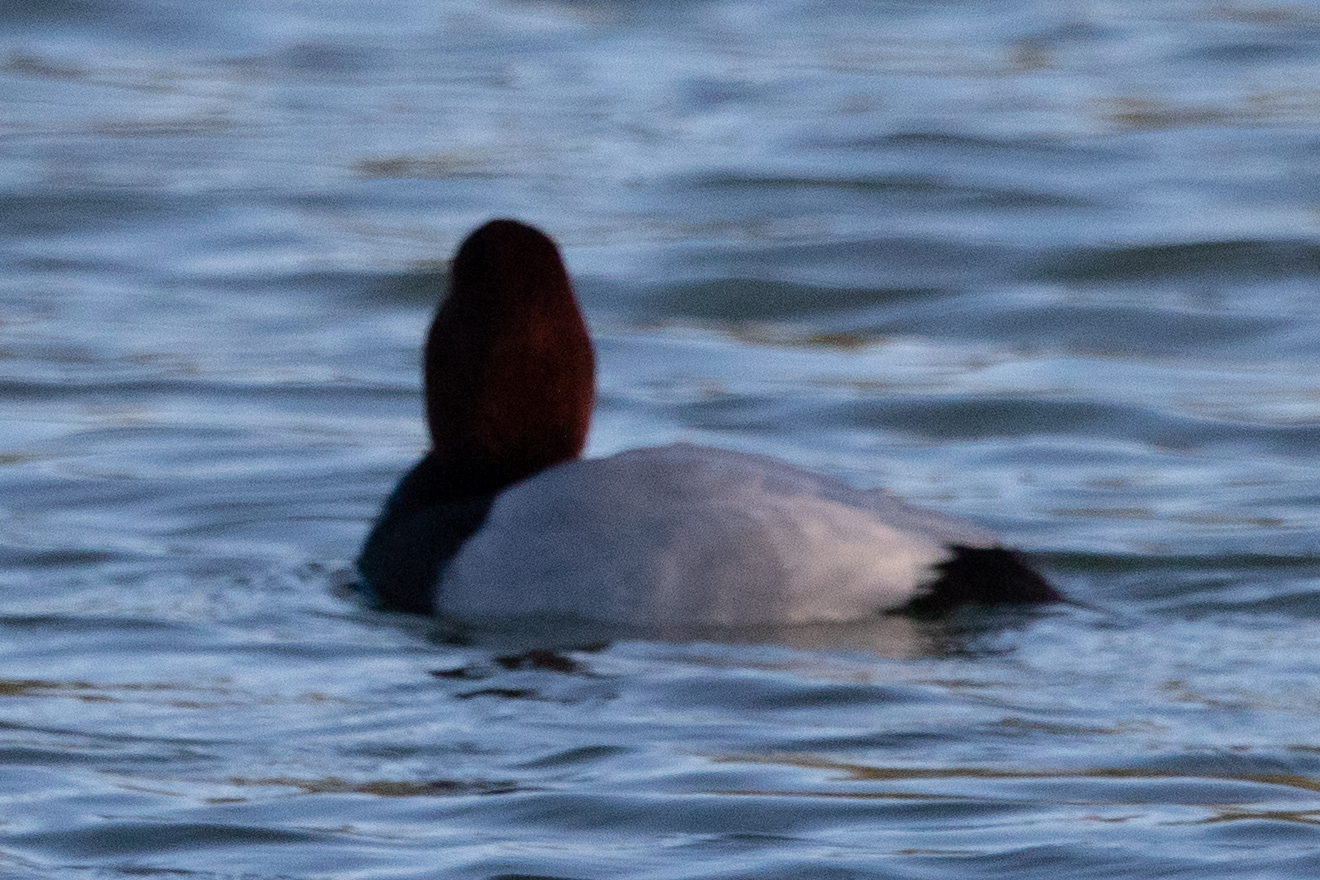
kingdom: Animalia
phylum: Chordata
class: Aves
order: Anseriformes
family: Anatidae
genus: Aythya
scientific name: Aythya ferina
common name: Common pochard
